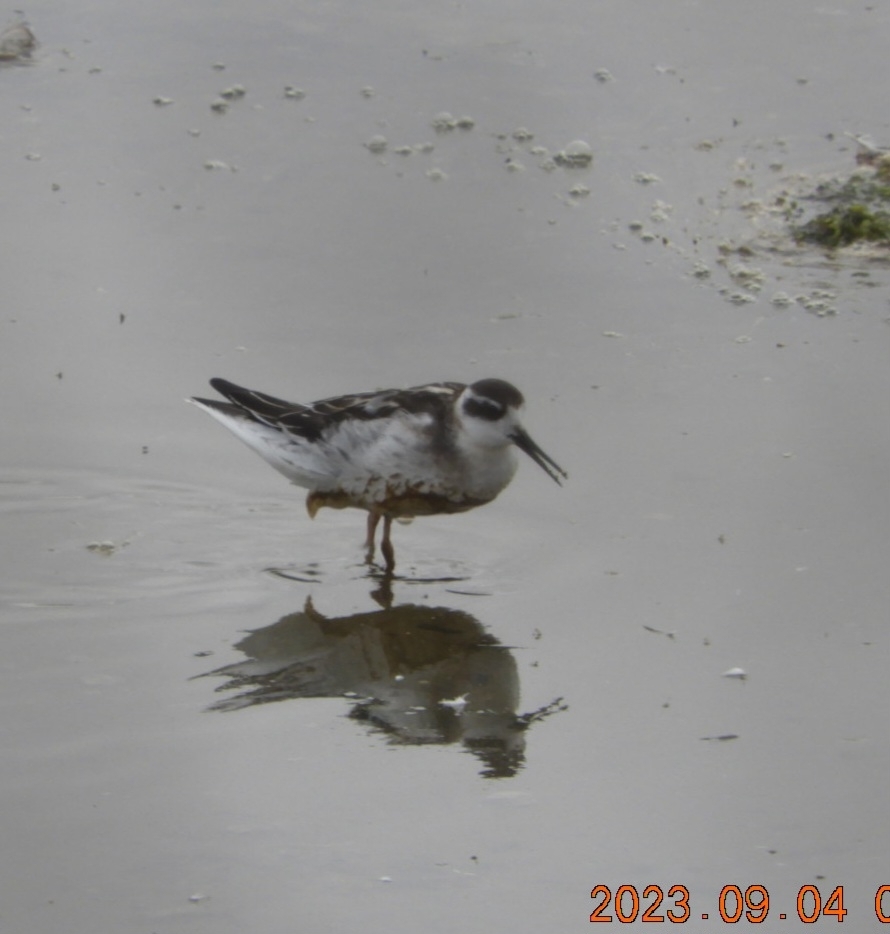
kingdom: Animalia
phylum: Chordata
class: Aves
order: Charadriiformes
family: Scolopacidae
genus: Phalaropus
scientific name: Phalaropus lobatus
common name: Red-necked phalarope
